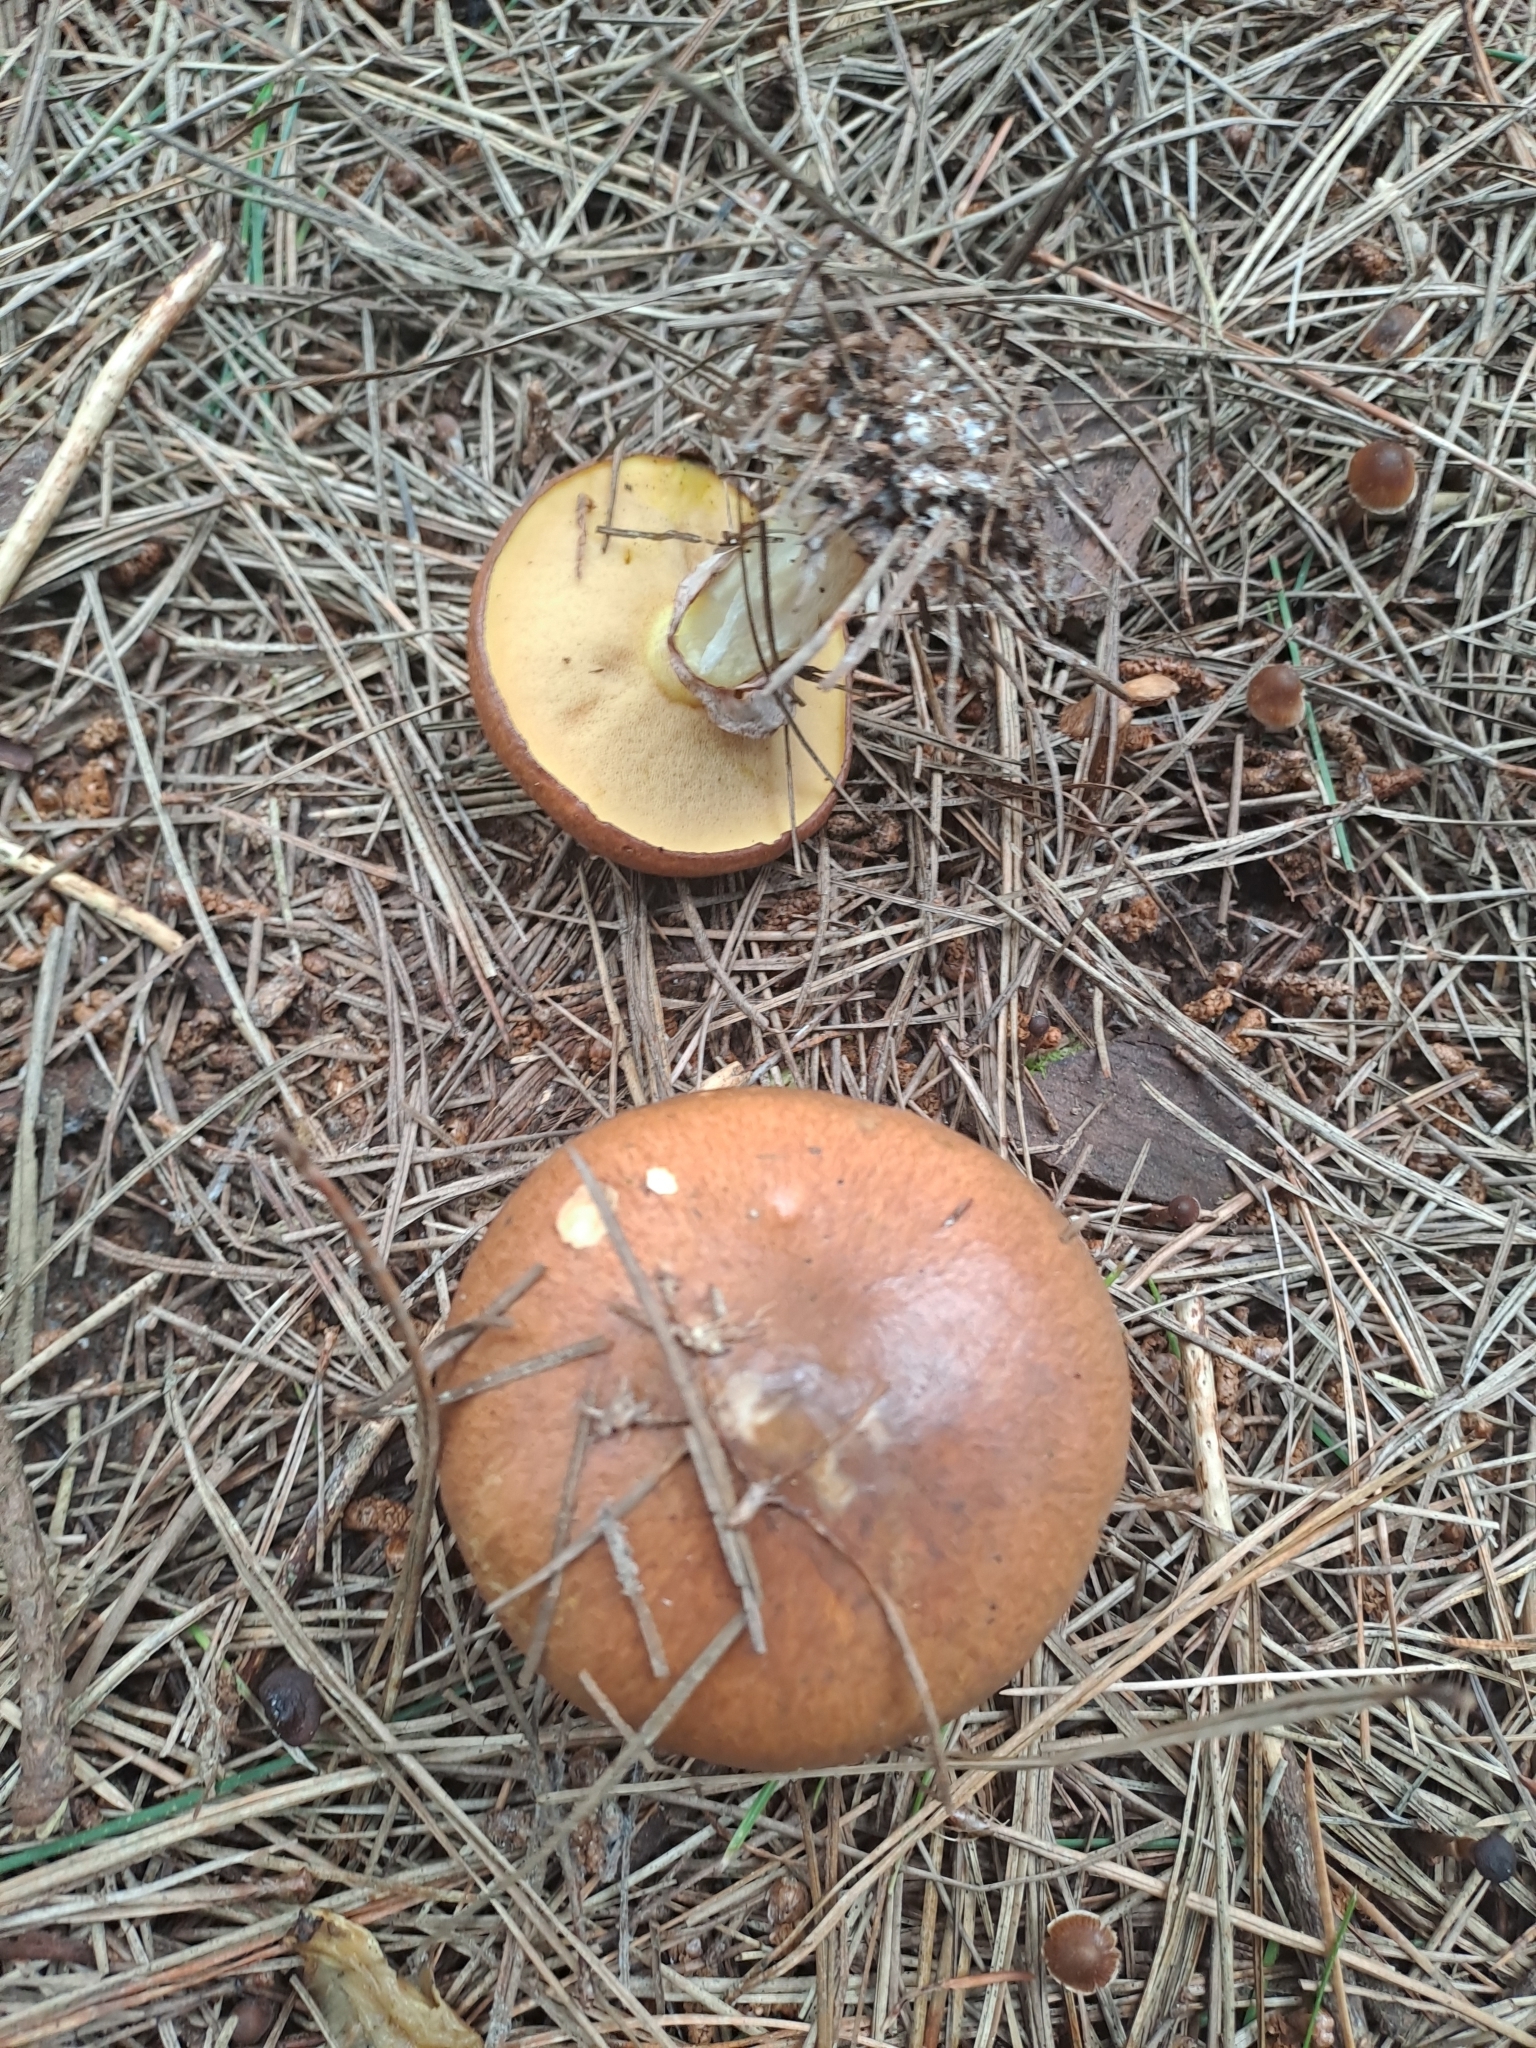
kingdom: Fungi
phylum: Basidiomycota
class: Agaricomycetes
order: Boletales
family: Suillaceae
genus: Suillus
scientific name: Suillus luteus
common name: Slippery jack
